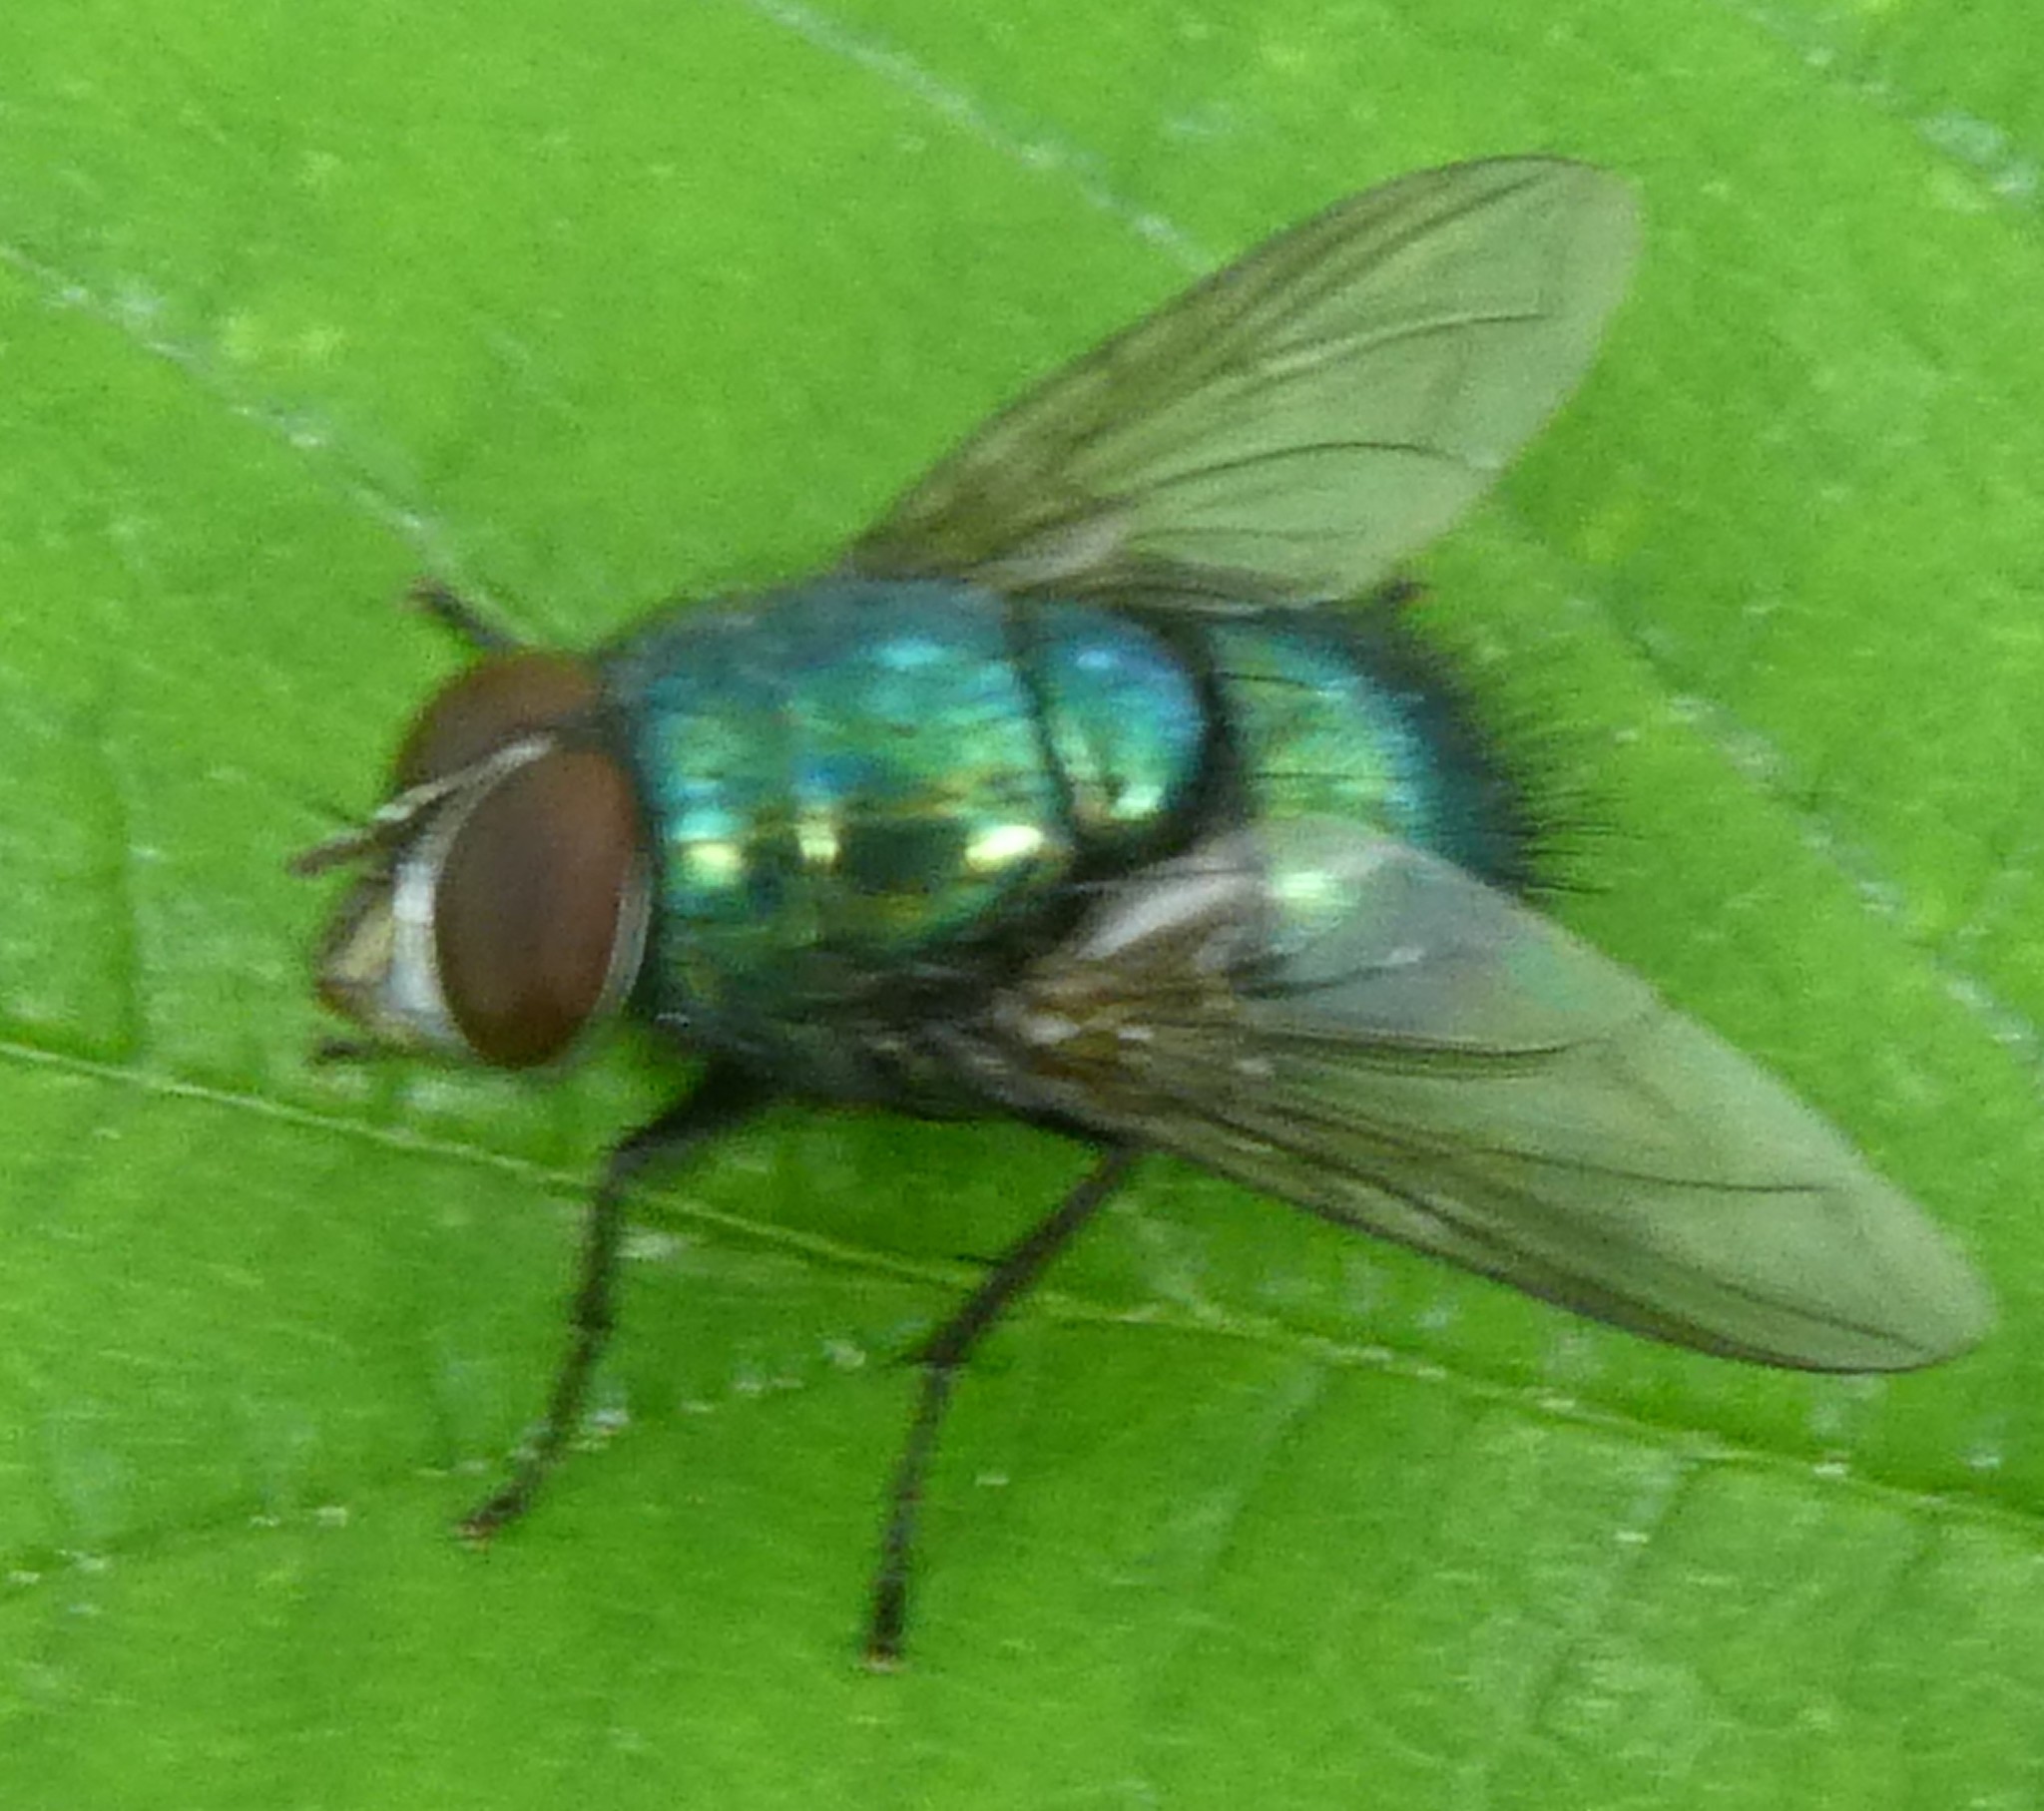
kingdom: Animalia
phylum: Arthropoda
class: Insecta
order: Diptera
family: Calliphoridae
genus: Lucilia
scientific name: Lucilia
